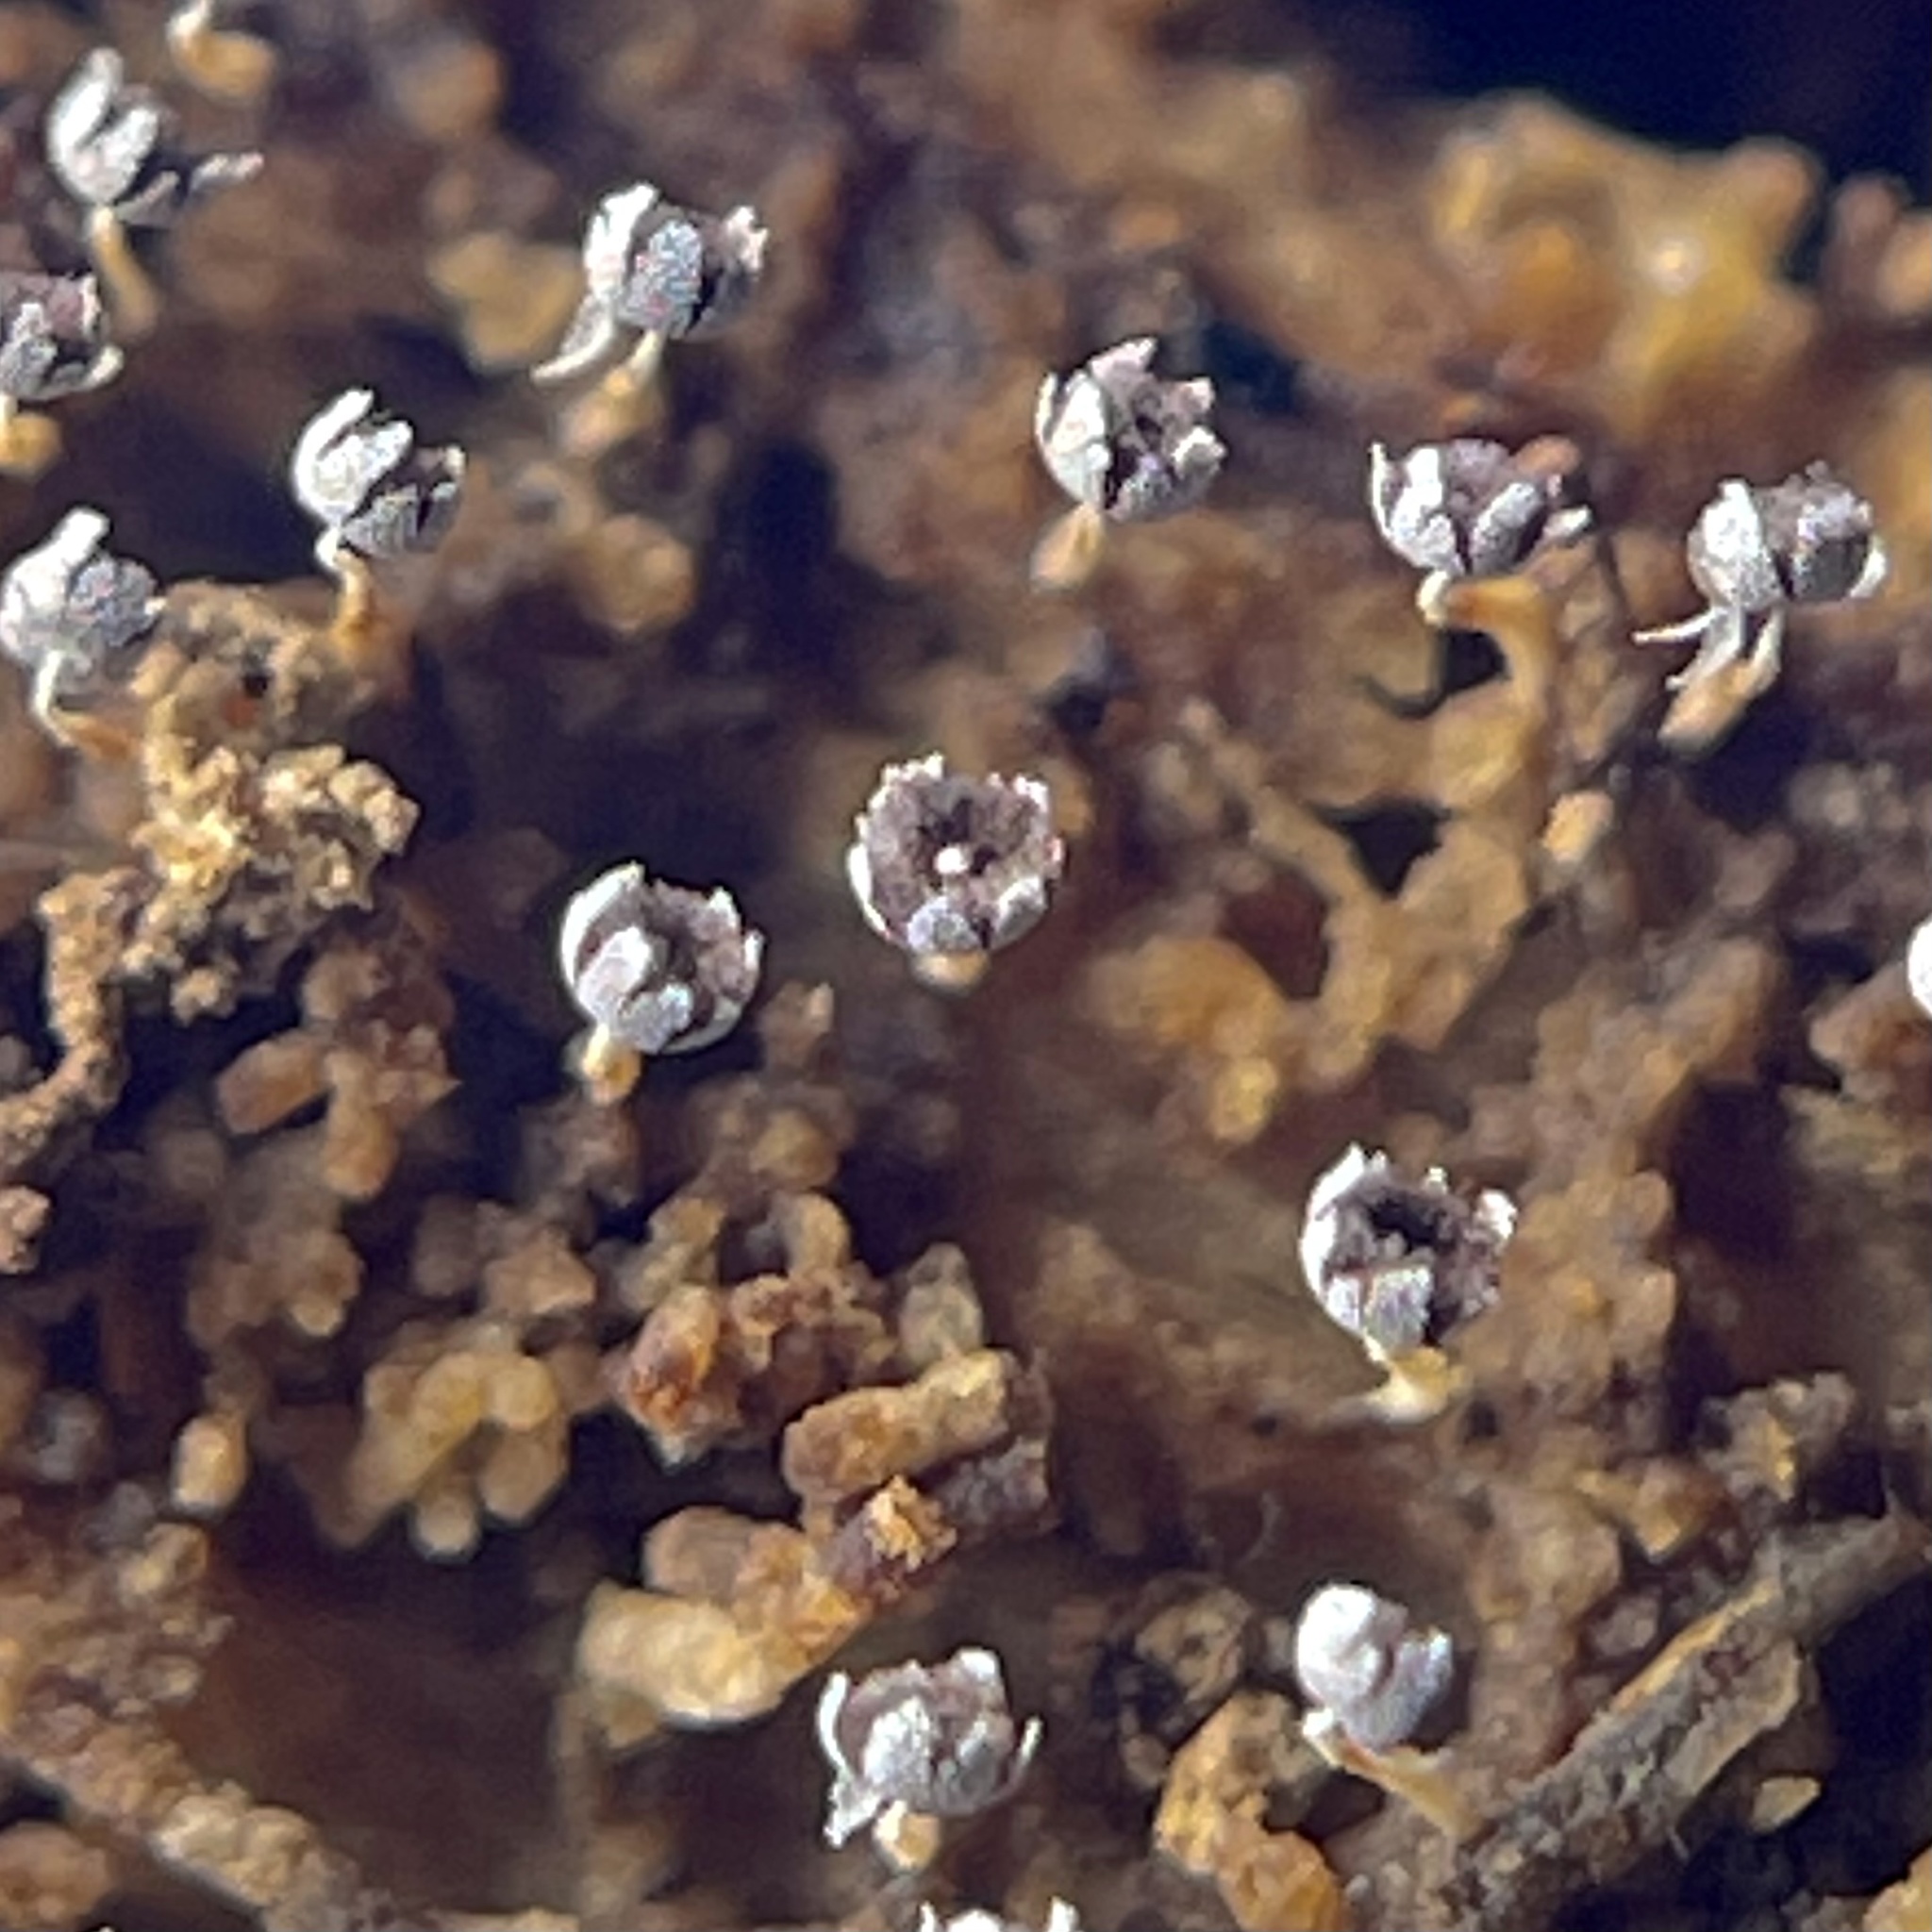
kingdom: Protozoa
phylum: Mycetozoa
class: Myxomycetes
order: Physarales
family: Physaraceae
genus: Physarum
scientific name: Physarum stellatum
